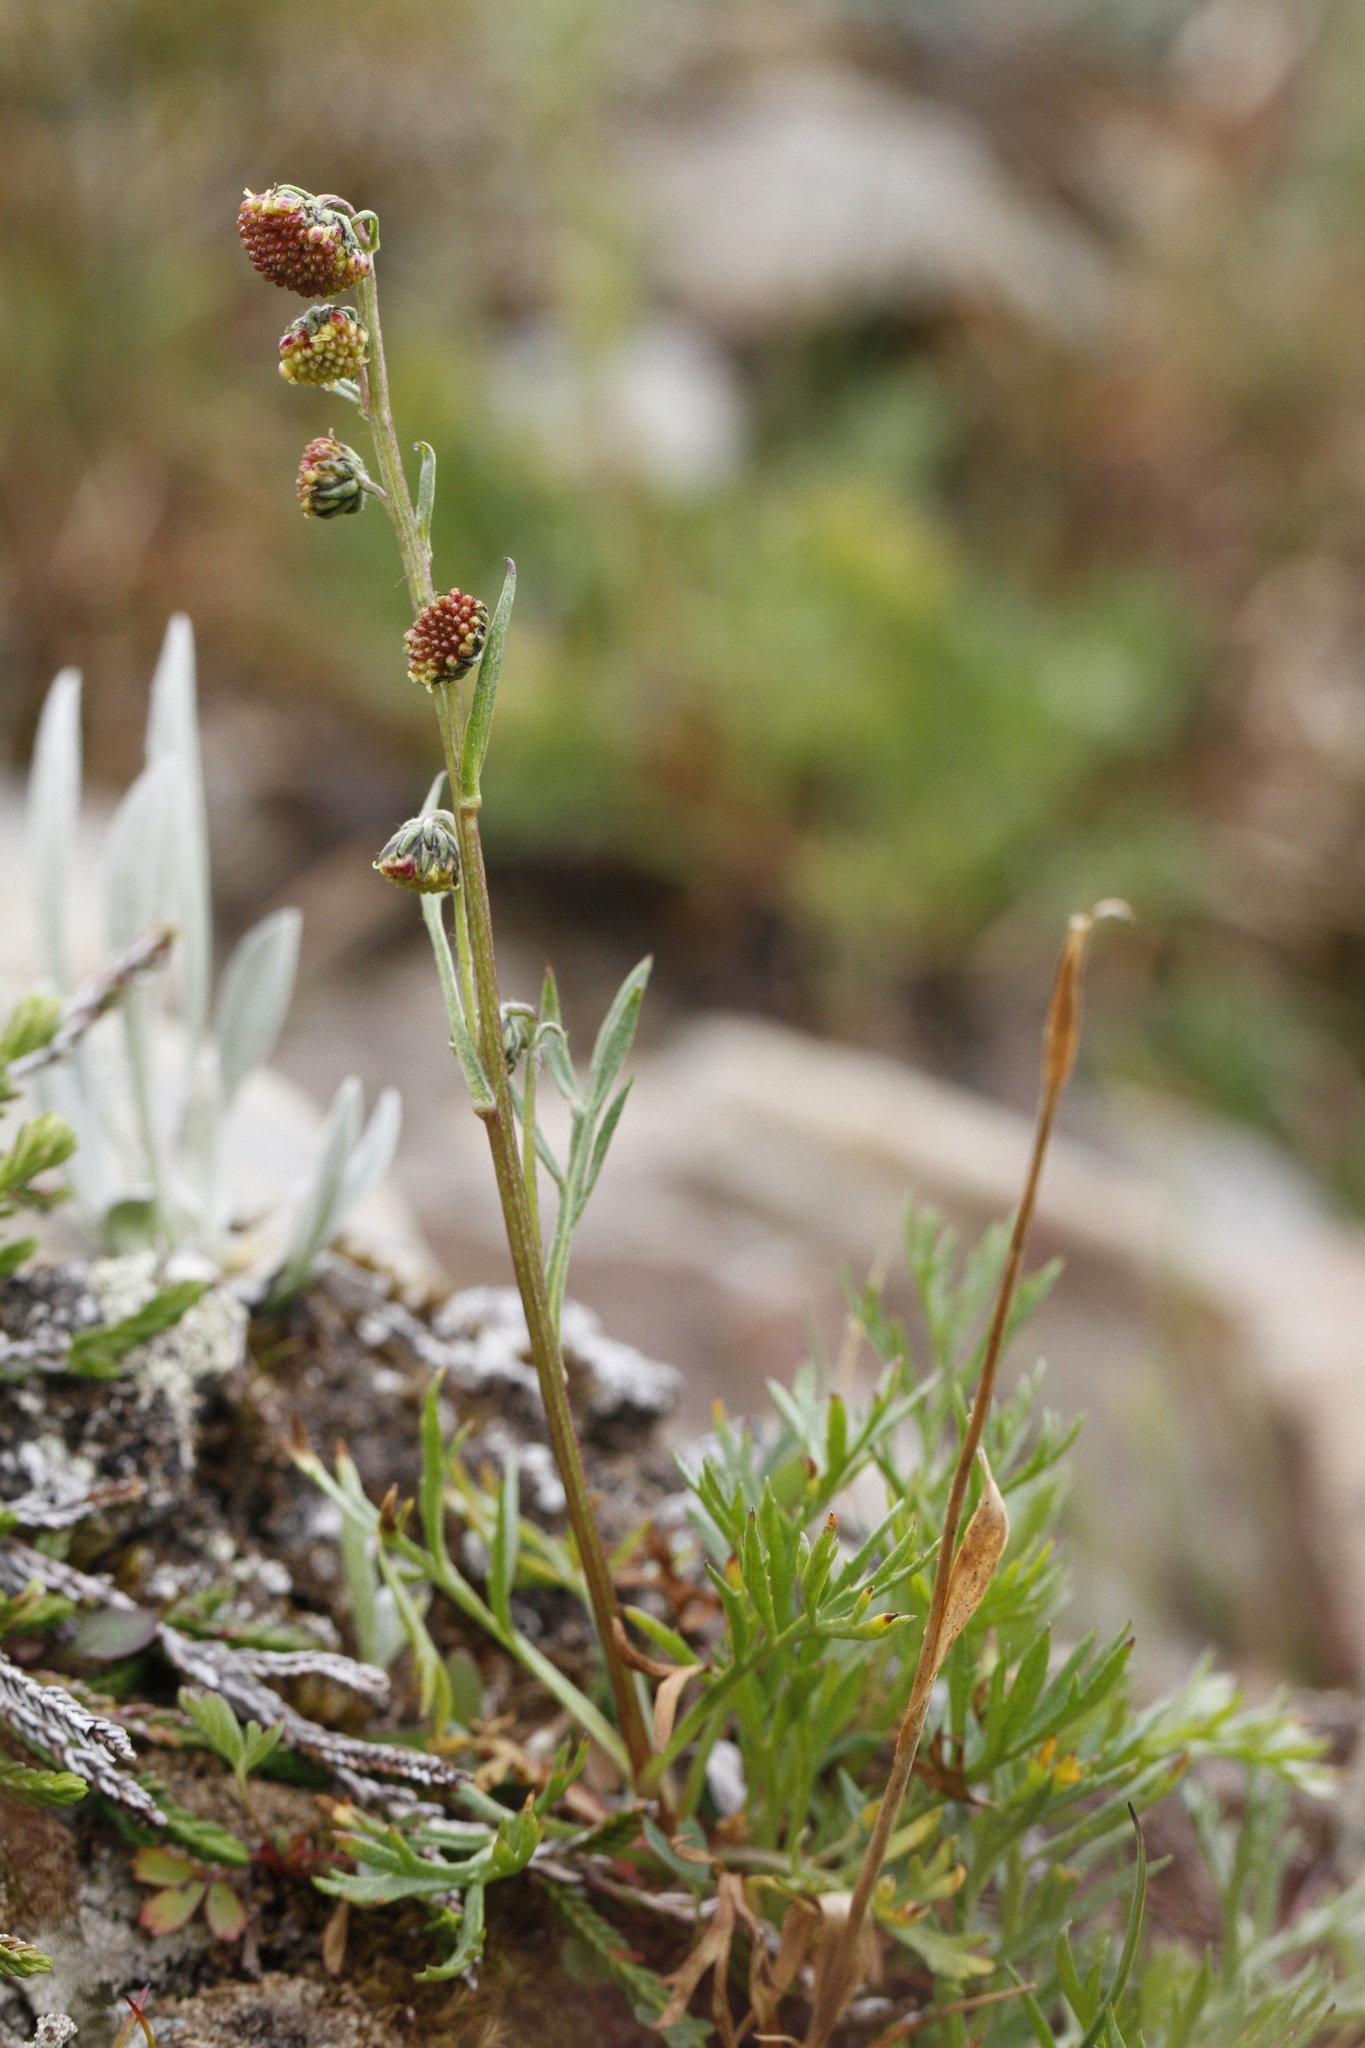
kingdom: Plantae
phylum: Tracheophyta
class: Magnoliopsida
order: Asterales
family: Asteraceae
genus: Artemisia
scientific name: Artemisia norvegica
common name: Norwegian mugwort
